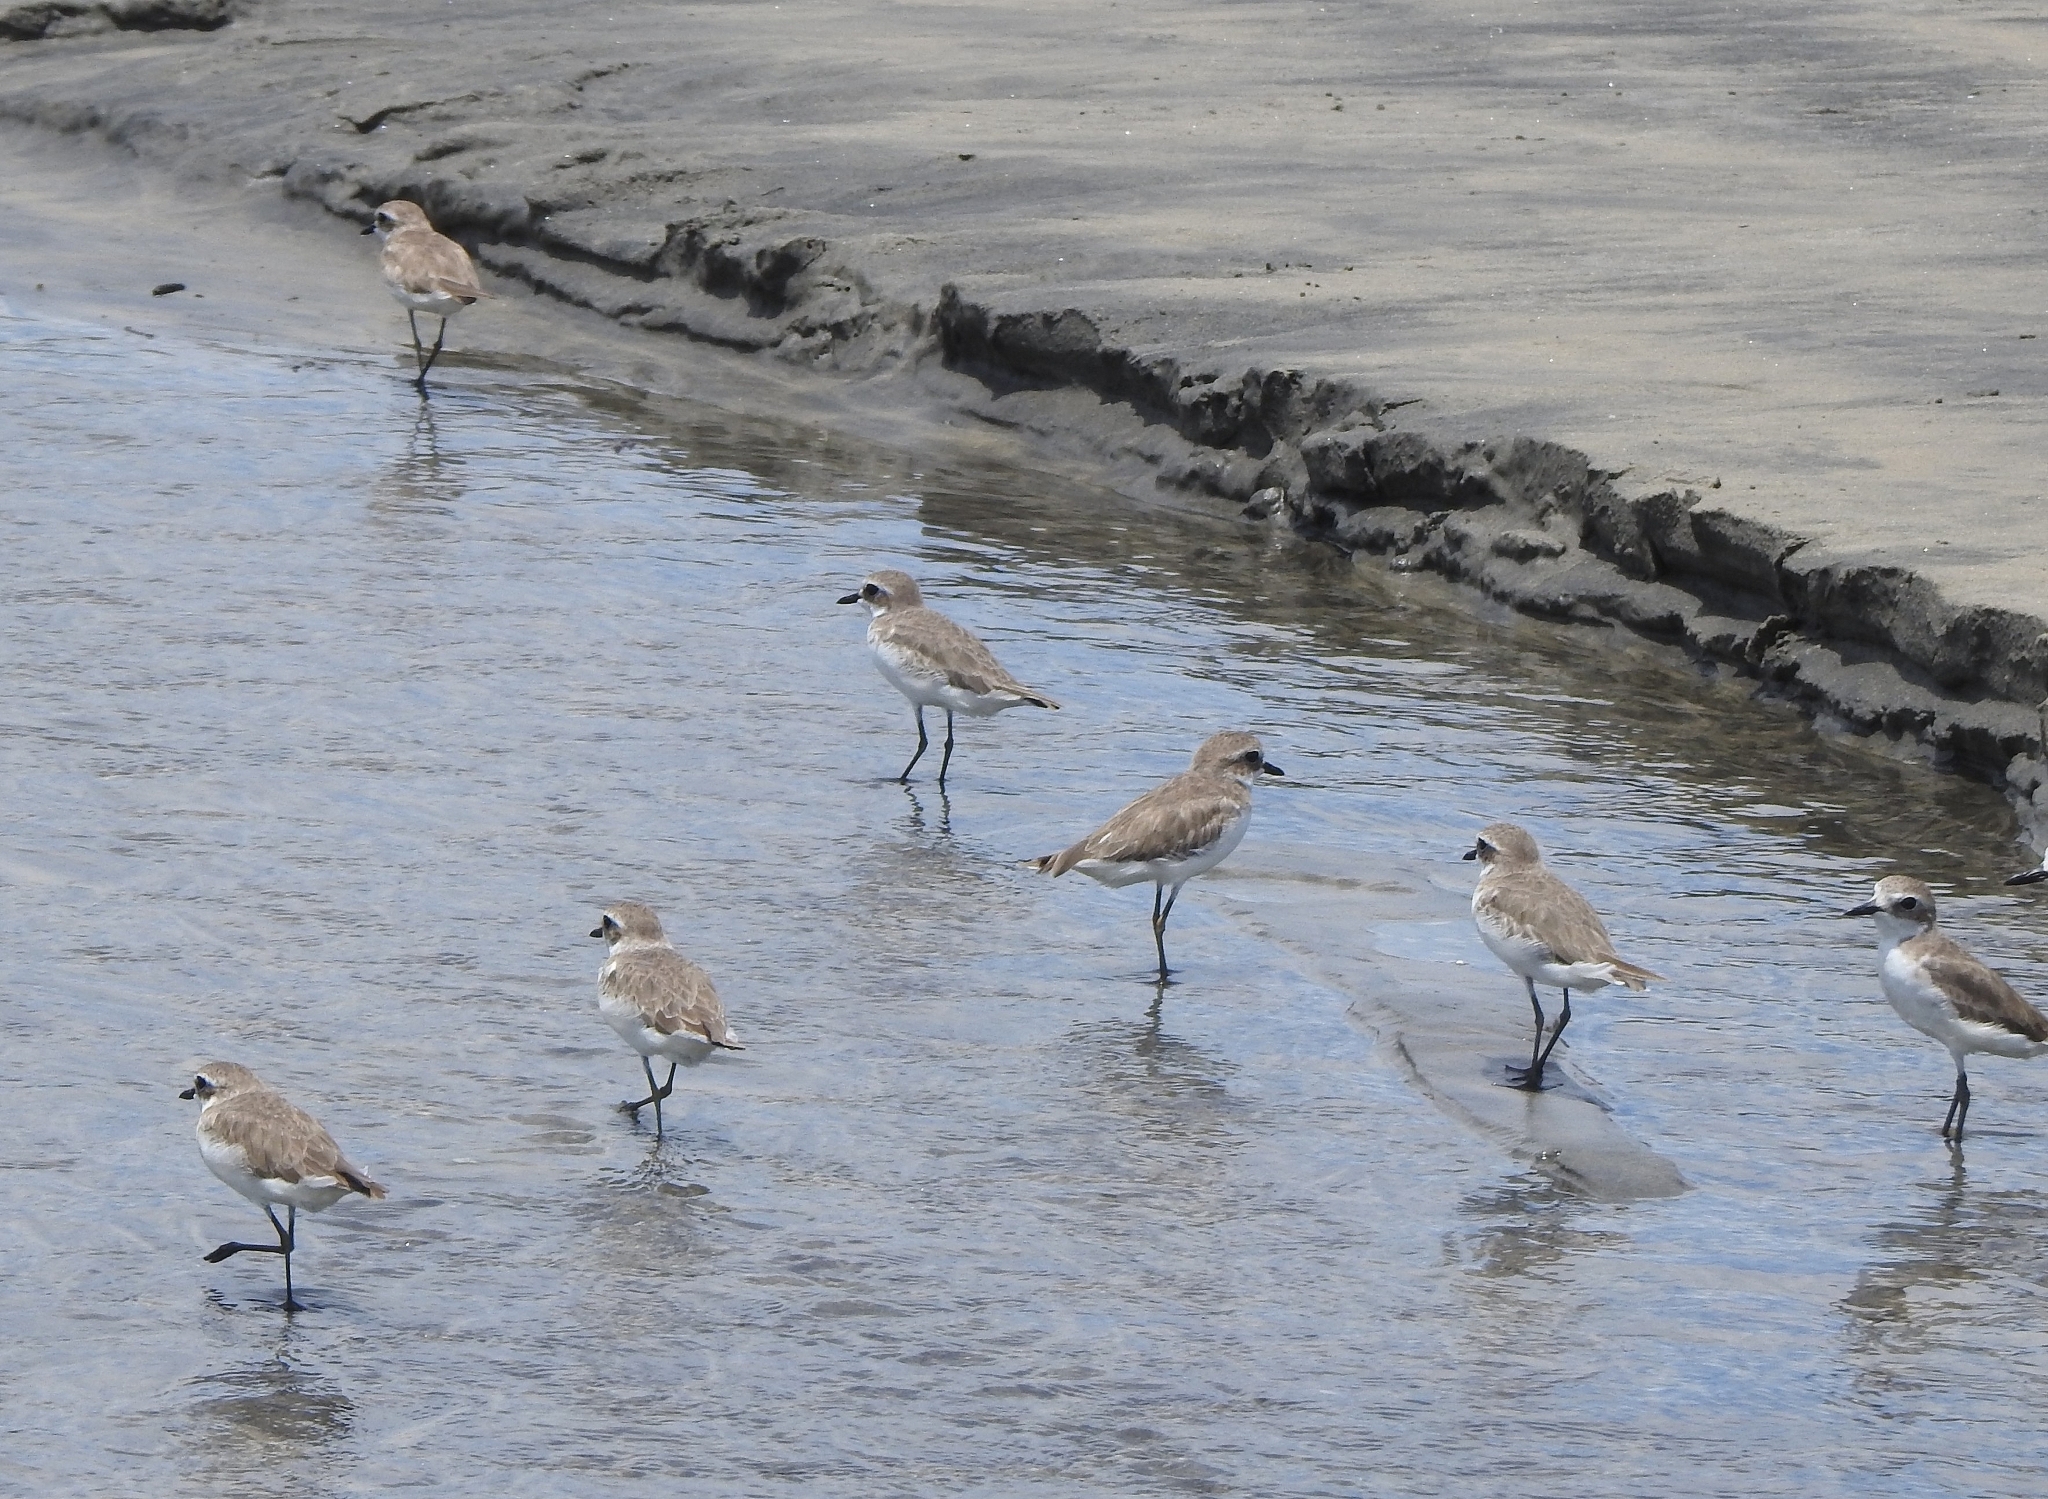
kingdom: Animalia
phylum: Chordata
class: Aves
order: Charadriiformes
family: Charadriidae
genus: Anarhynchus
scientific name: Anarhynchus
